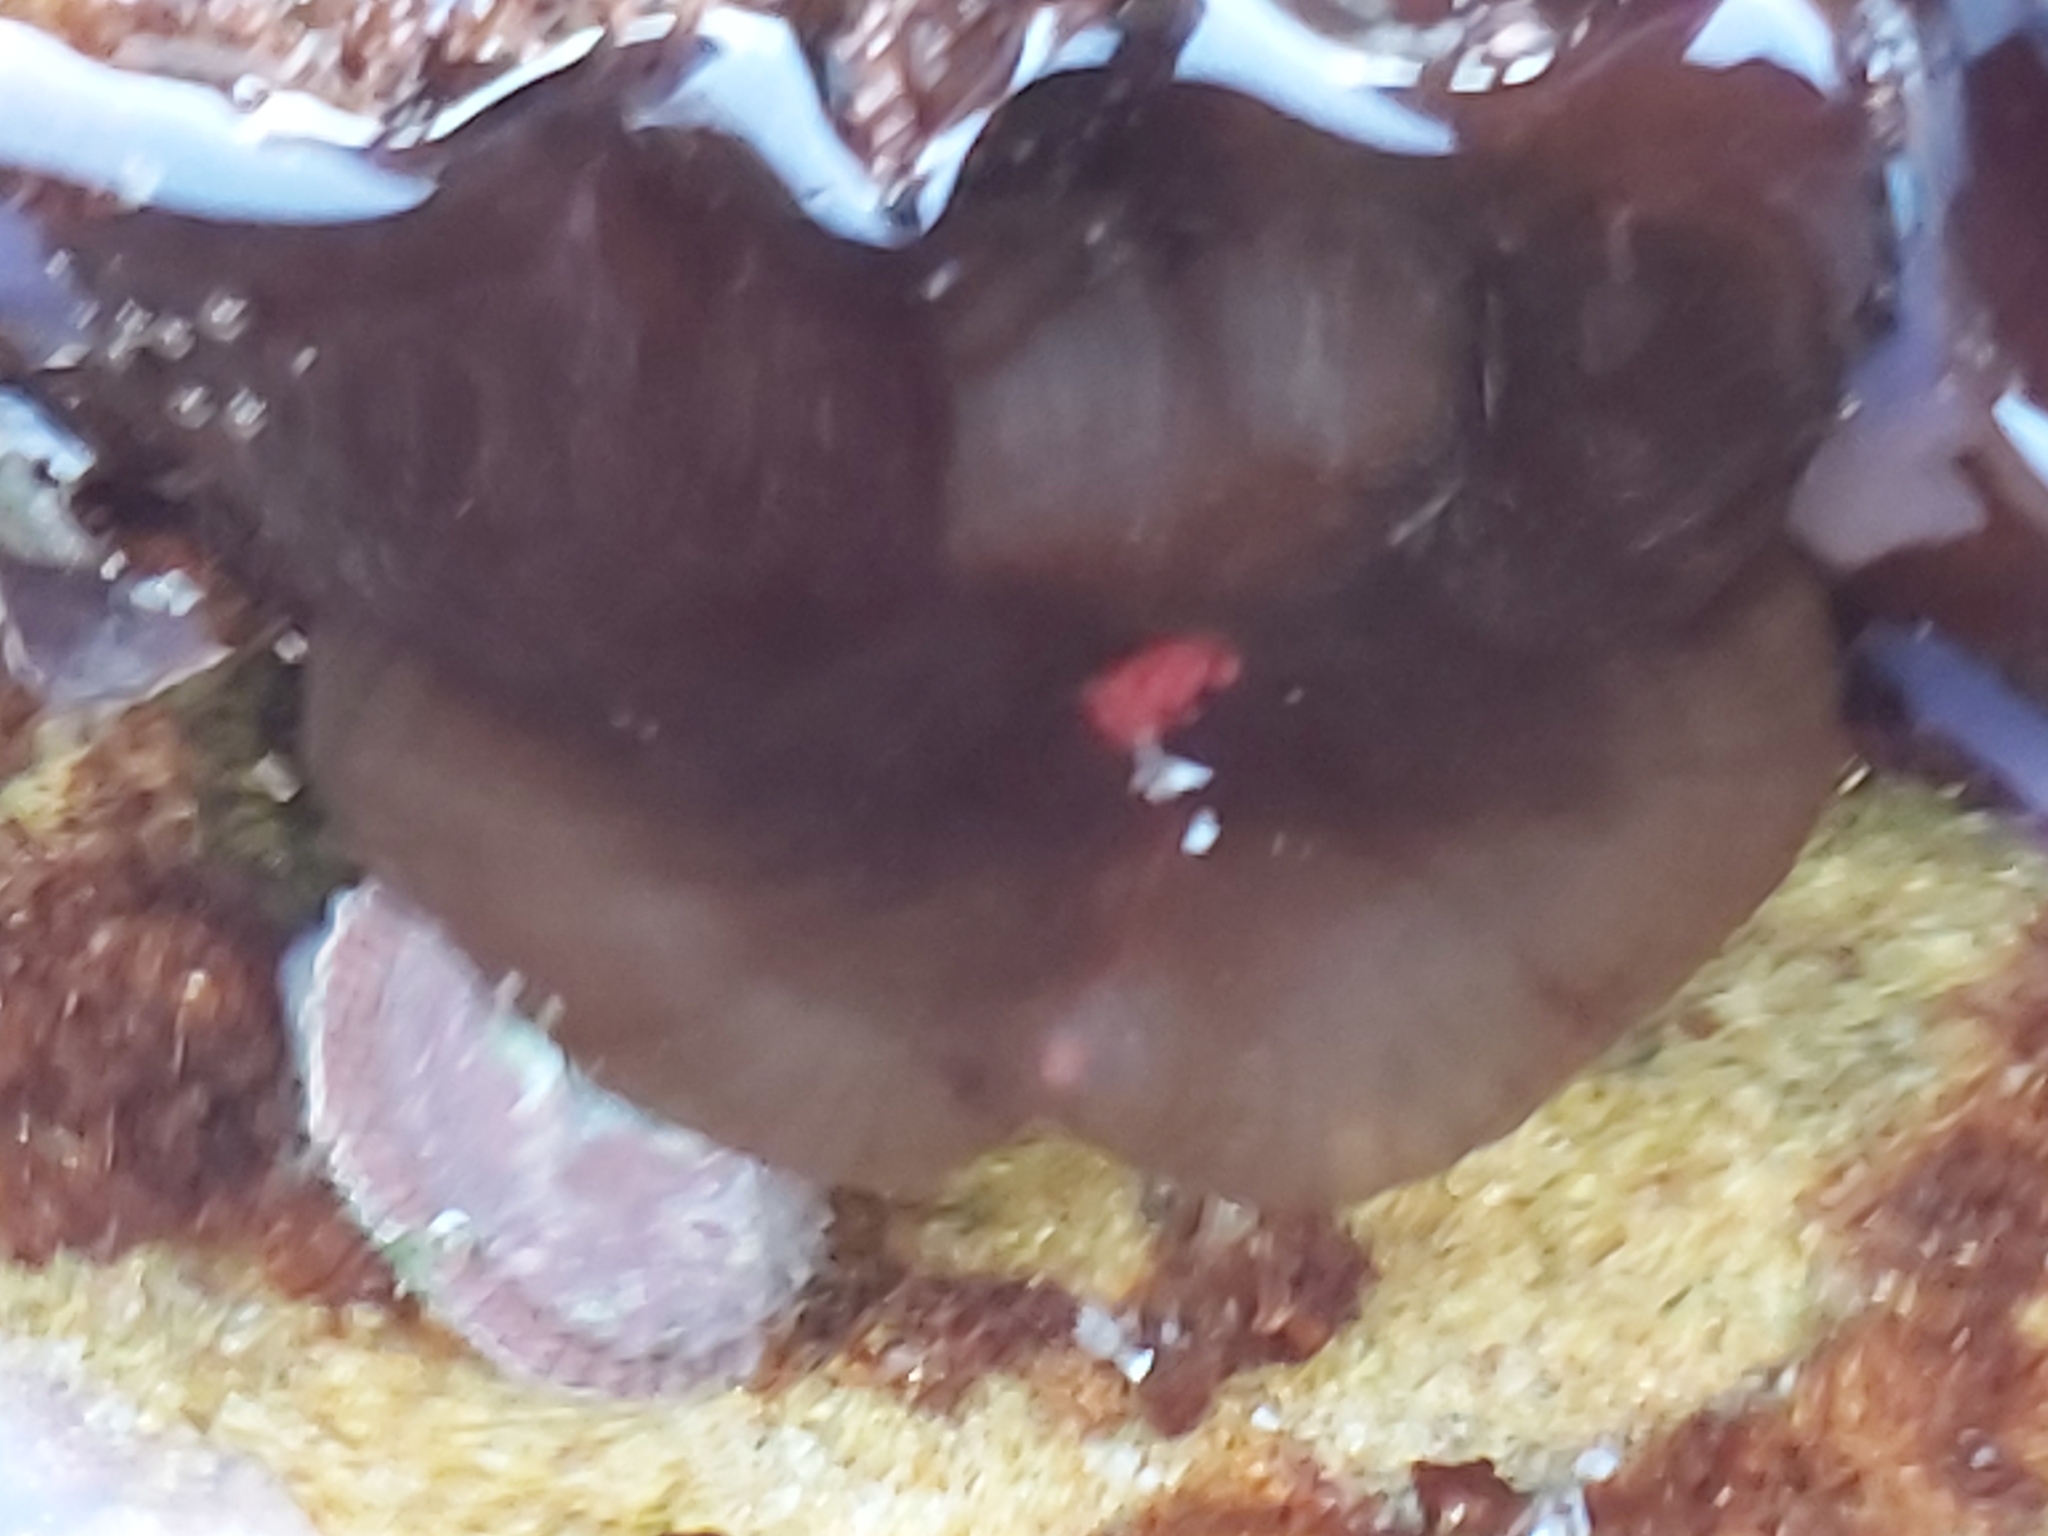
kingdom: Animalia
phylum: Cnidaria
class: Anthozoa
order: Actiniaria
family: Actiniidae
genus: Actinia
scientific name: Actinia tenebrosa
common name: Waratah anemone
